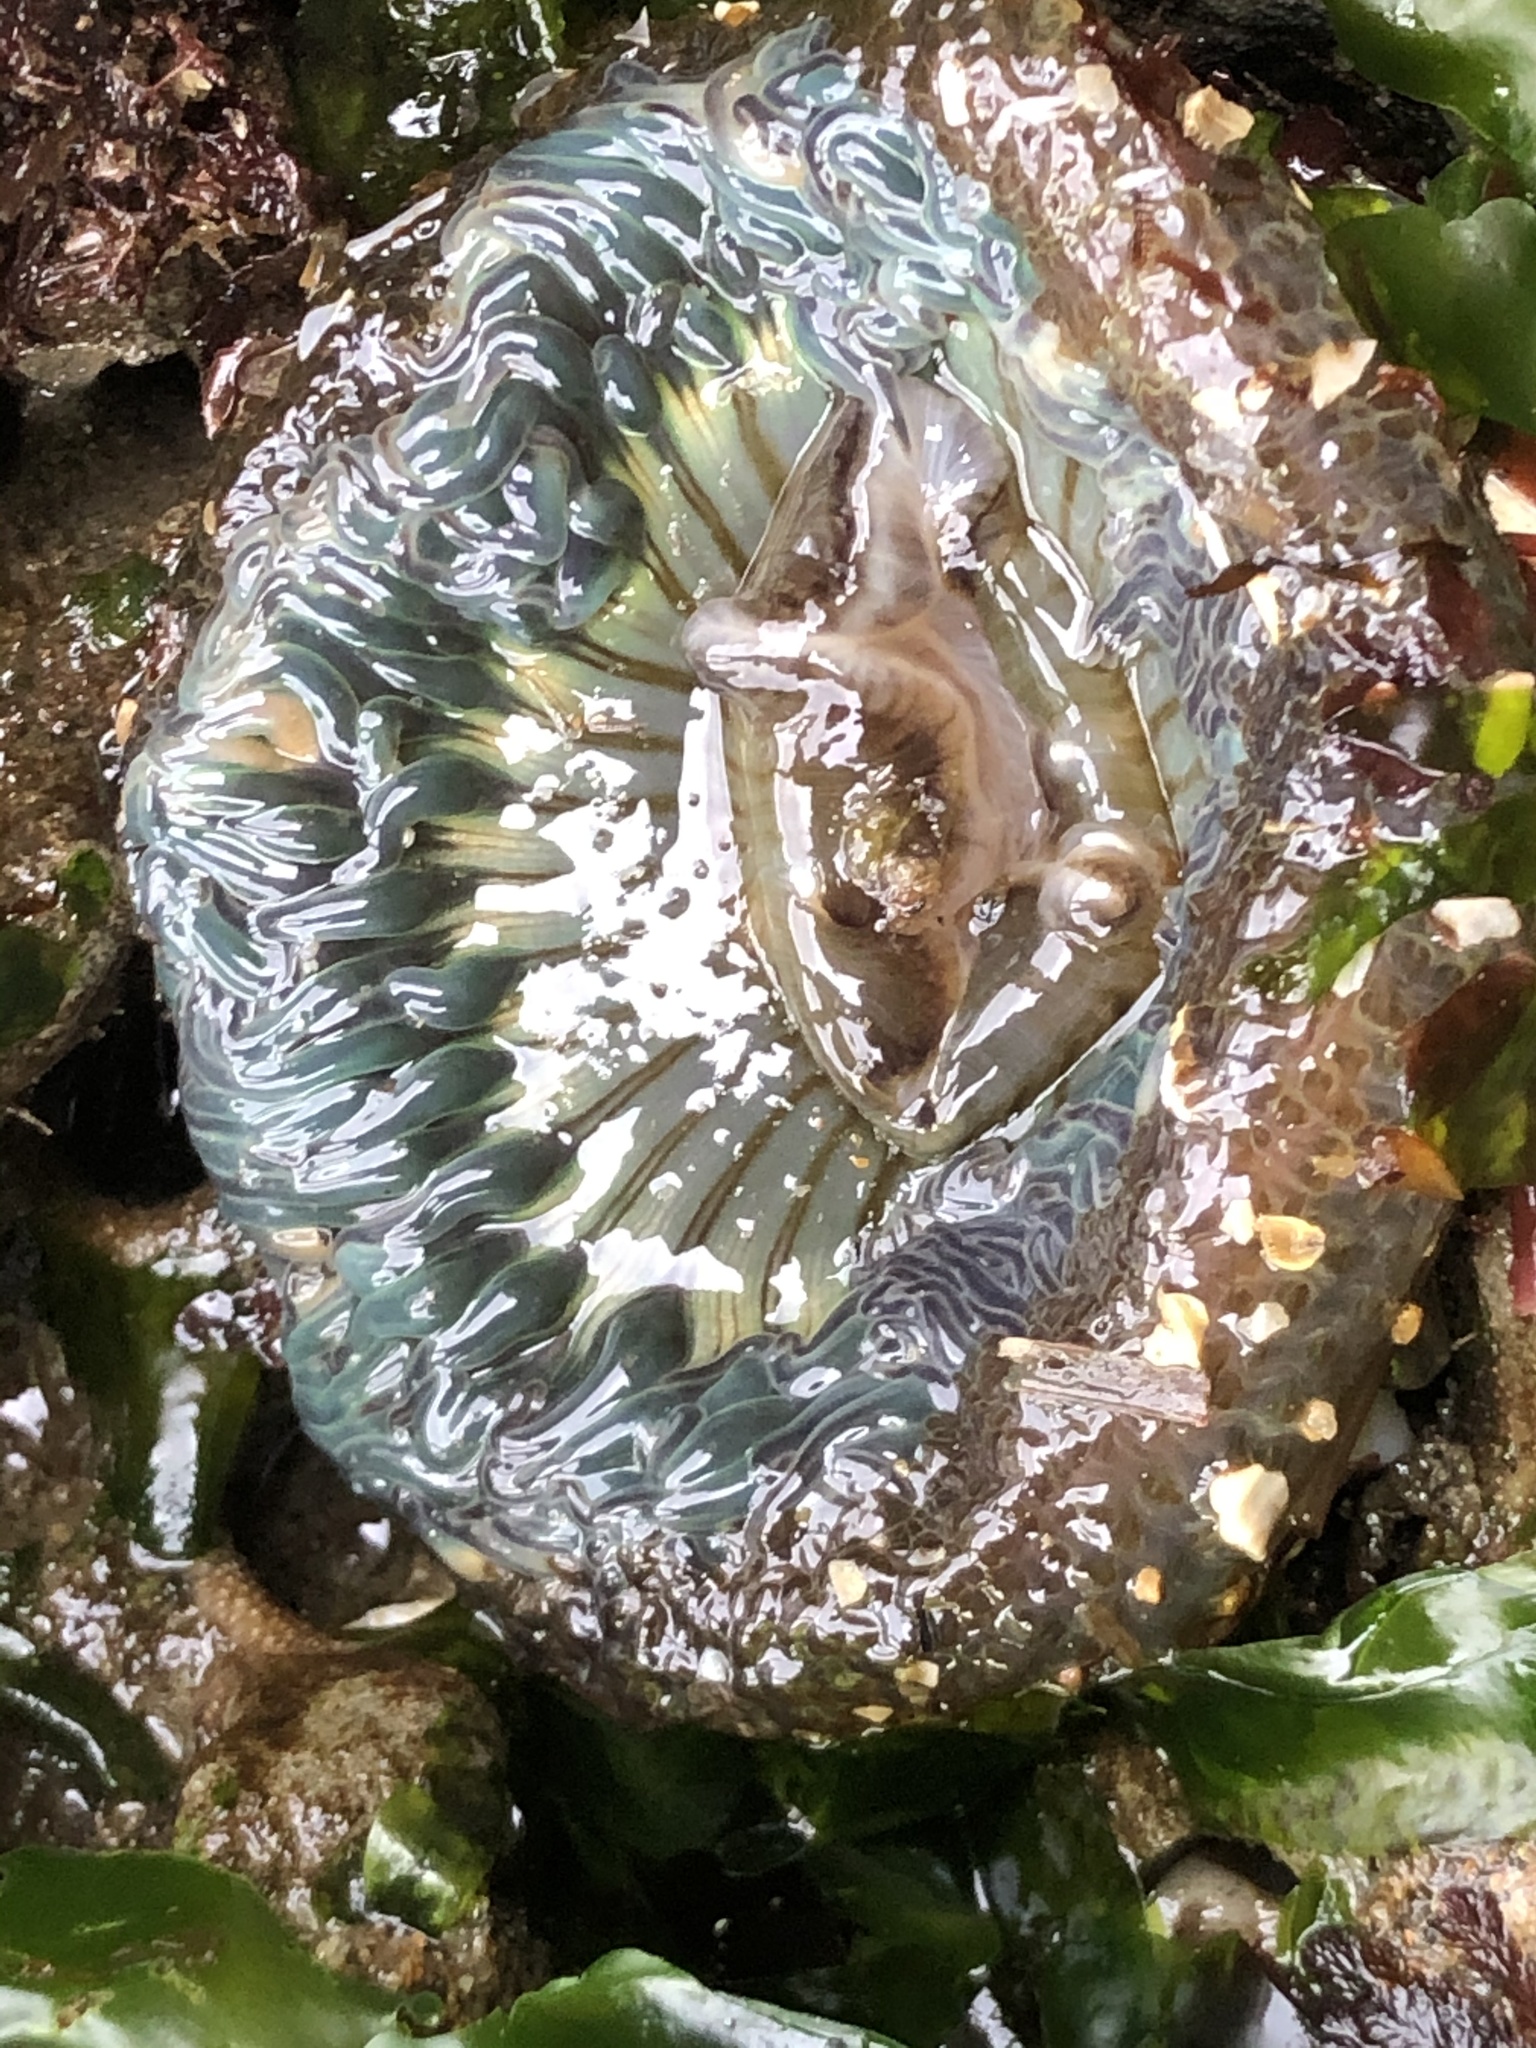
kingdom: Animalia
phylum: Cnidaria
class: Anthozoa
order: Actiniaria
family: Actiniidae
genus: Anthopleura
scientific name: Anthopleura sola
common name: Sun anemone
